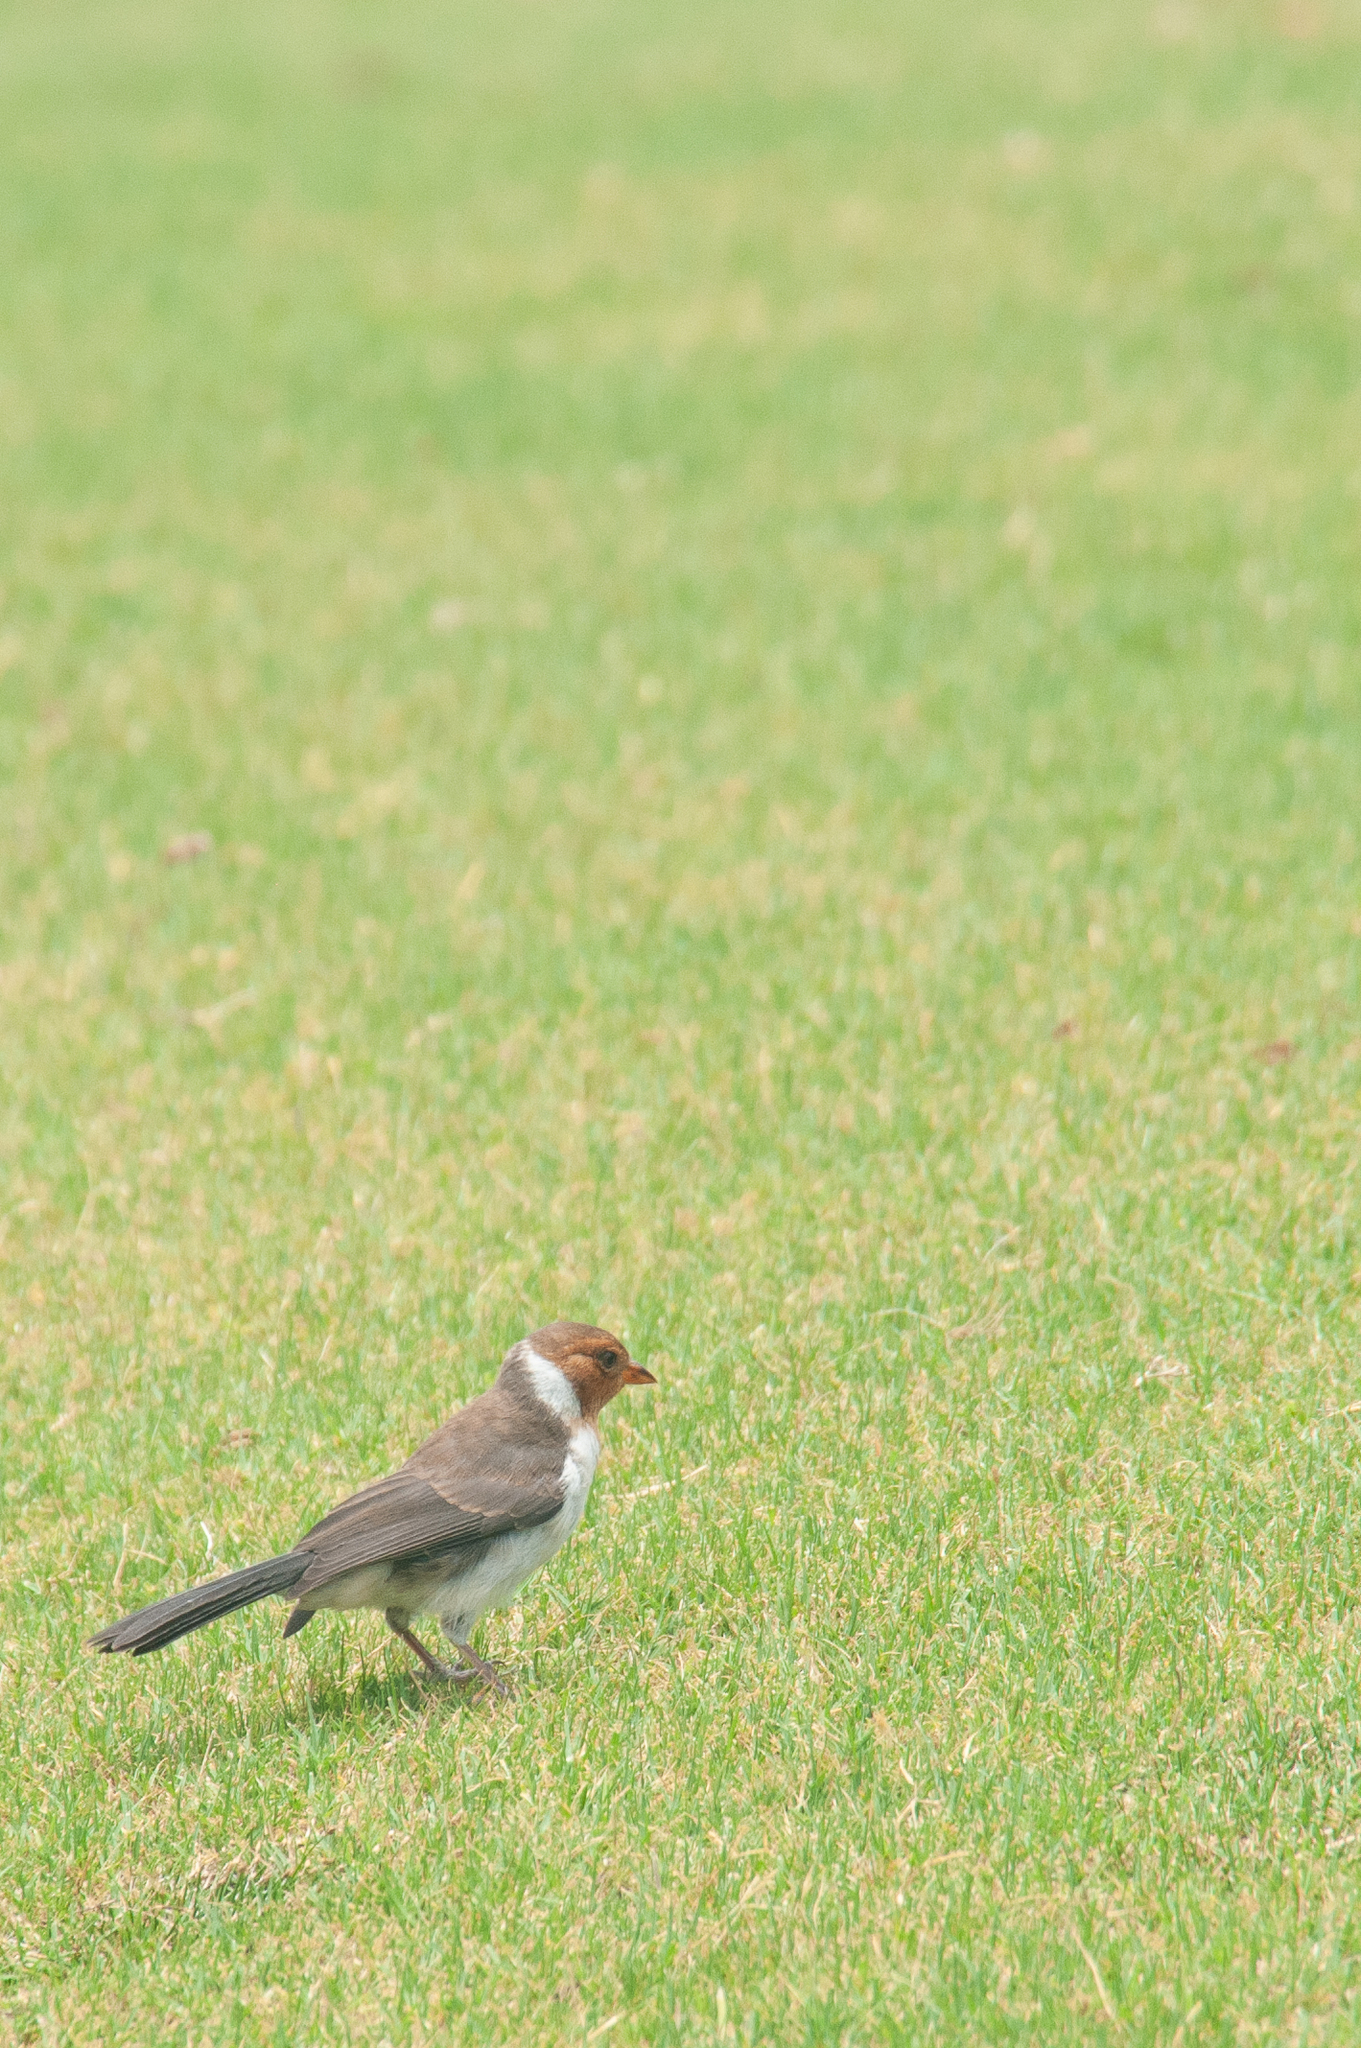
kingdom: Animalia
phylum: Chordata
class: Aves
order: Passeriformes
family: Thraupidae
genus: Paroaria
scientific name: Paroaria capitata
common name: Yellow-billed cardinal
